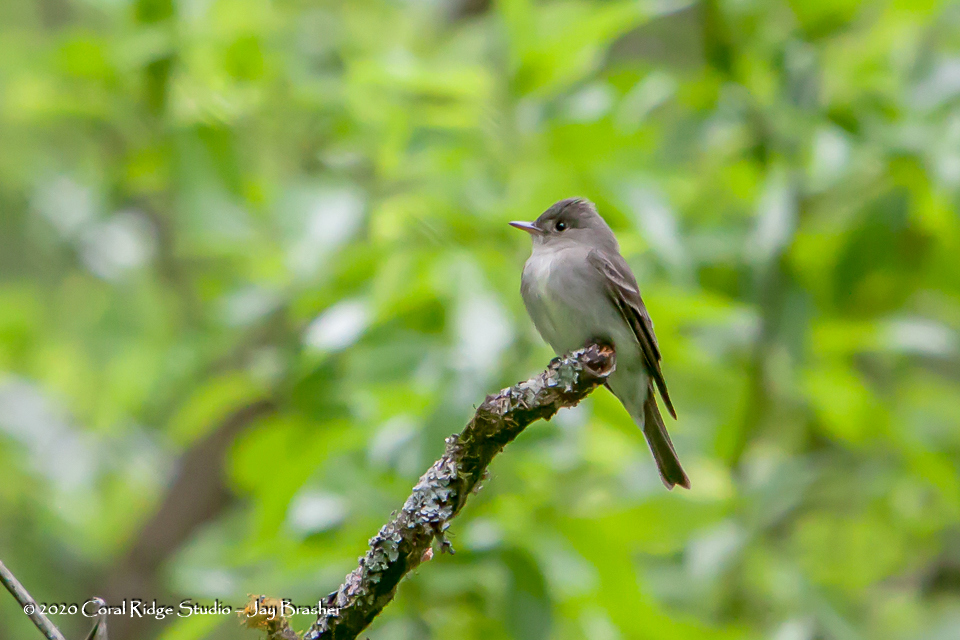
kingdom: Animalia
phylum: Chordata
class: Aves
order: Passeriformes
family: Tyrannidae
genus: Contopus
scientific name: Contopus virens
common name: Eastern wood-pewee
